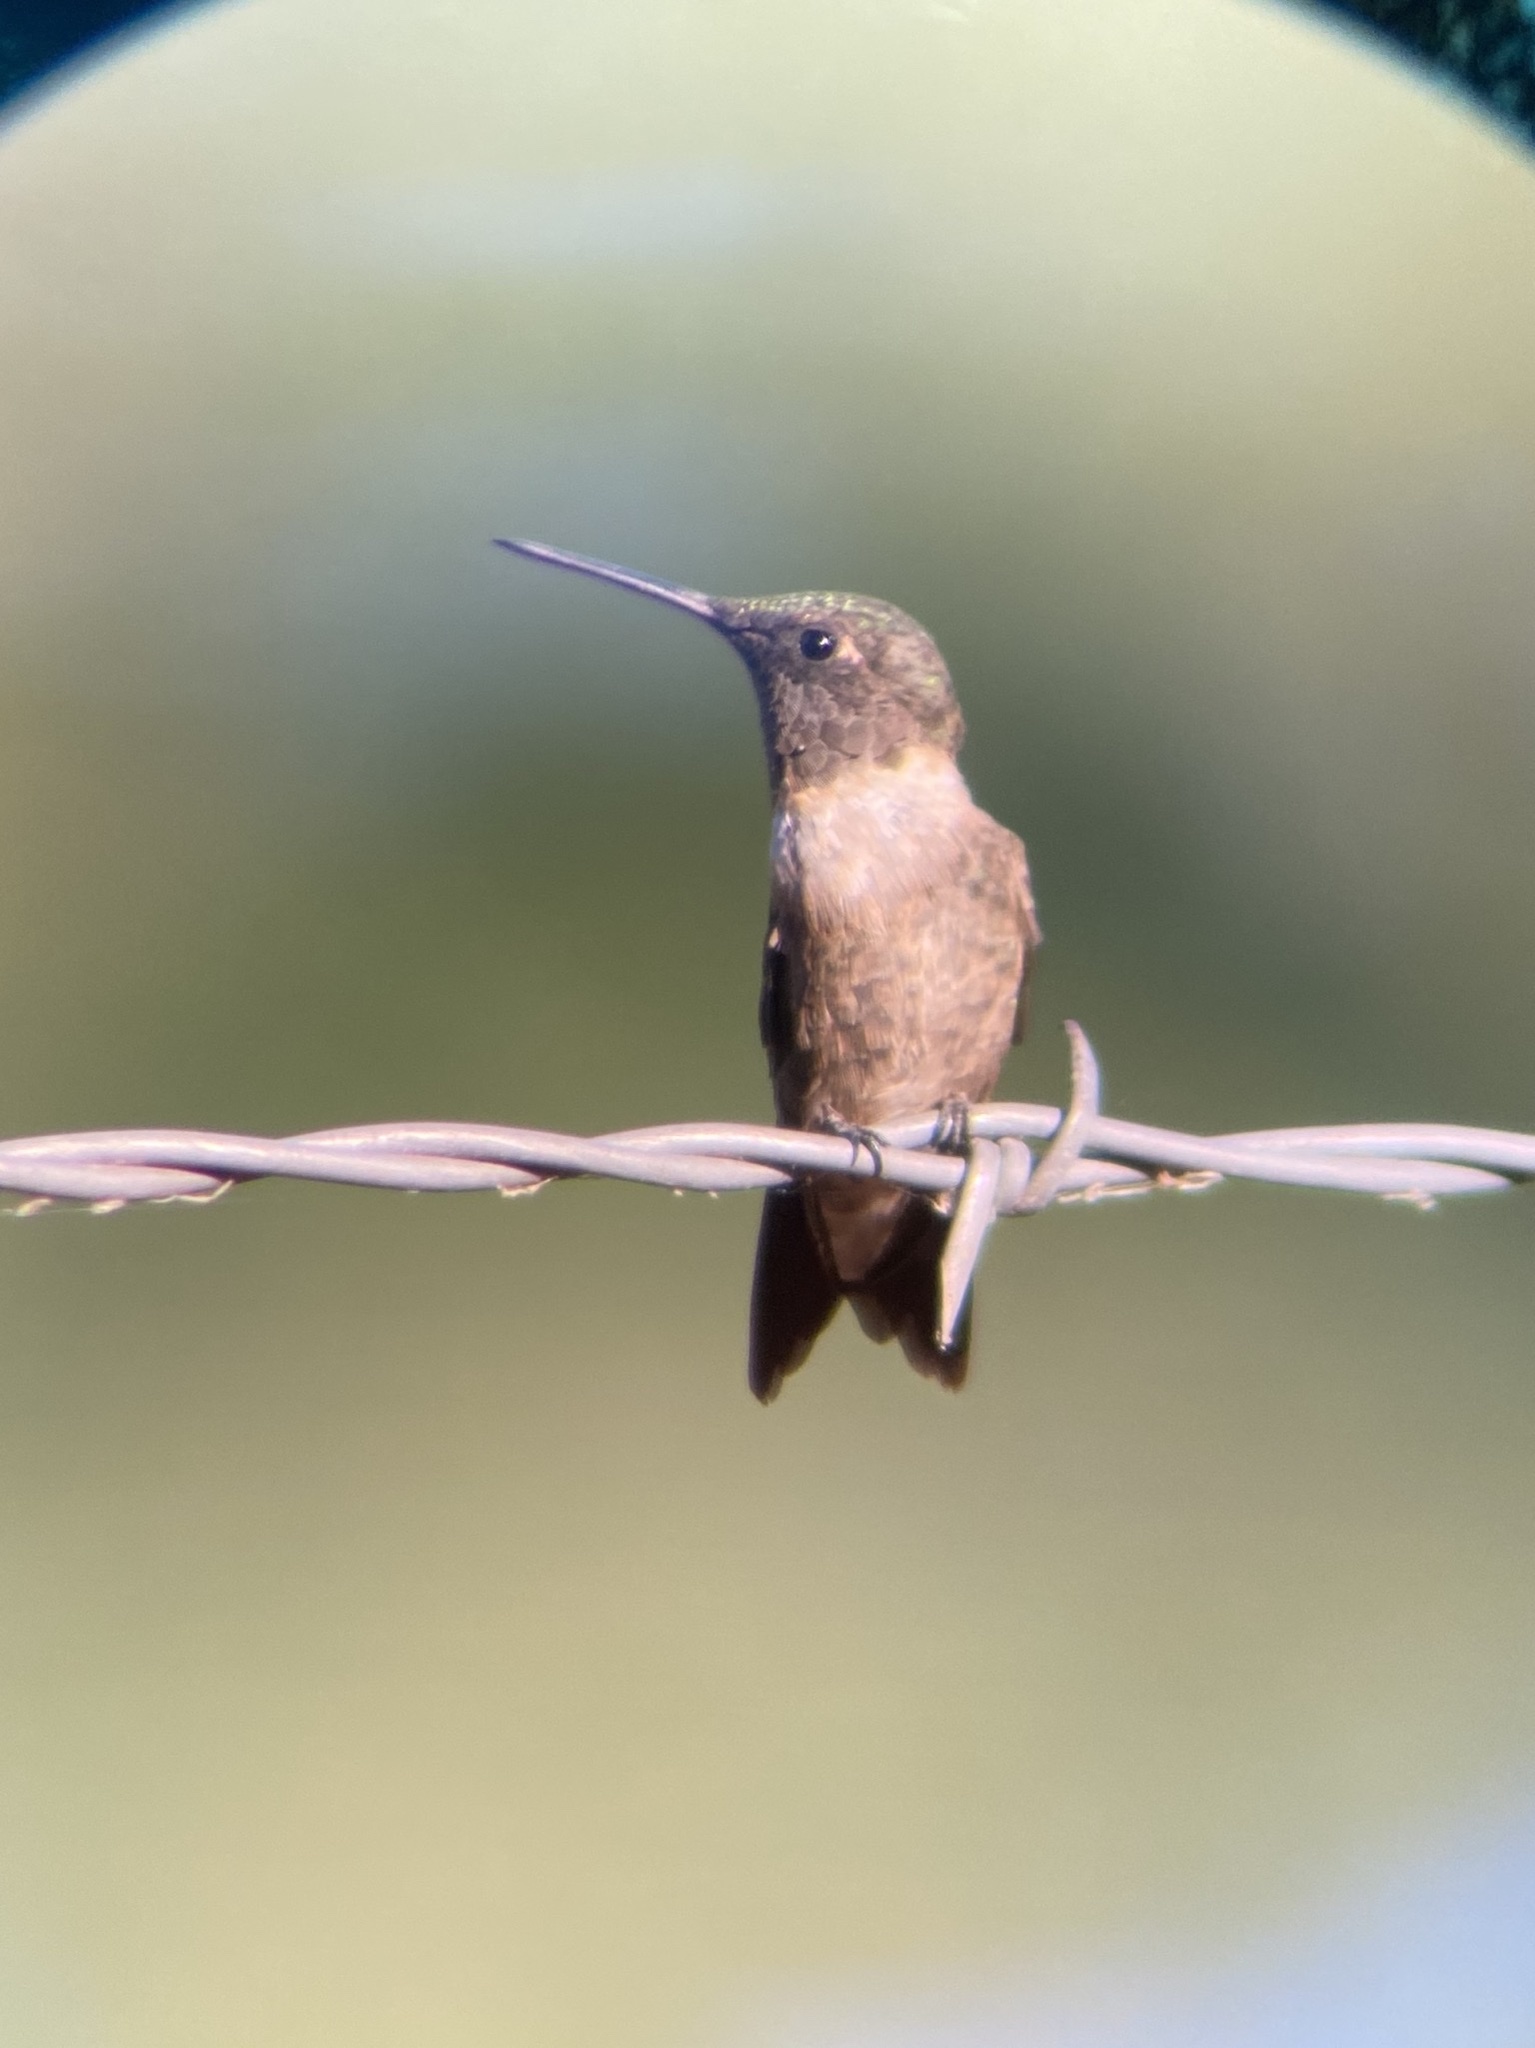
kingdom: Animalia
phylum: Chordata
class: Aves
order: Apodiformes
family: Trochilidae
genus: Archilochus
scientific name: Archilochus colubris
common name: Ruby-throated hummingbird
